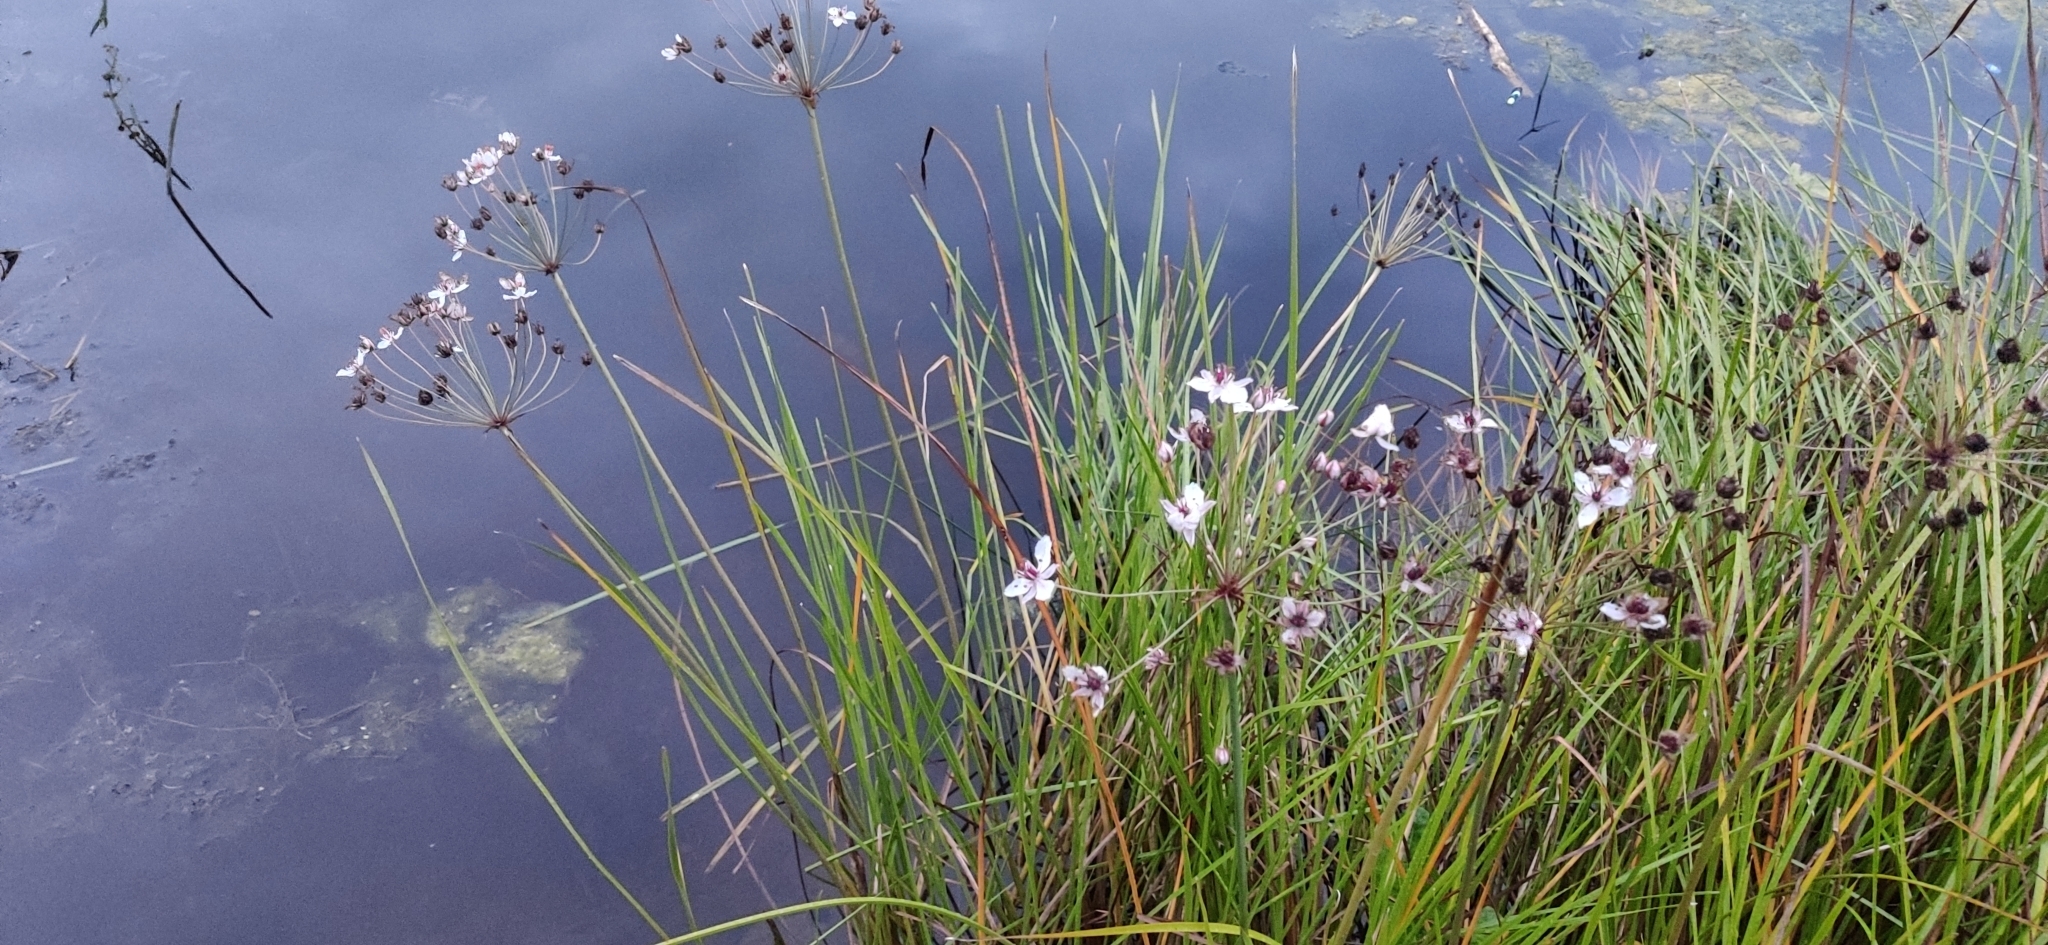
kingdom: Plantae
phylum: Tracheophyta
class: Liliopsida
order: Alismatales
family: Butomaceae
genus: Butomus
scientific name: Butomus umbellatus
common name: Flowering-rush
